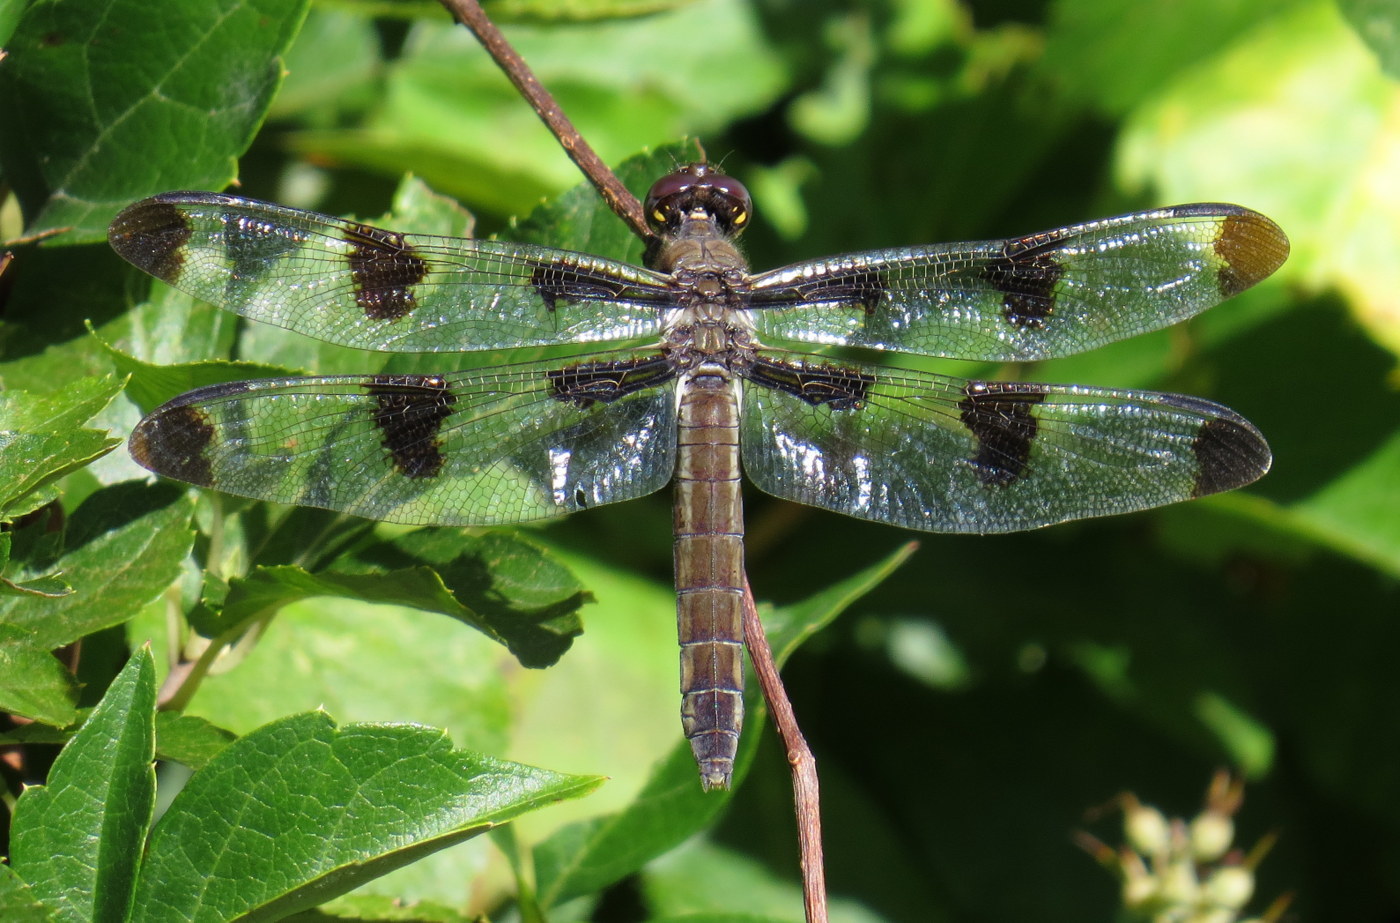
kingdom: Animalia
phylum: Arthropoda
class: Insecta
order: Odonata
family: Libellulidae
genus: Libellula
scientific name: Libellula pulchella
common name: Twelve-spotted skimmer
